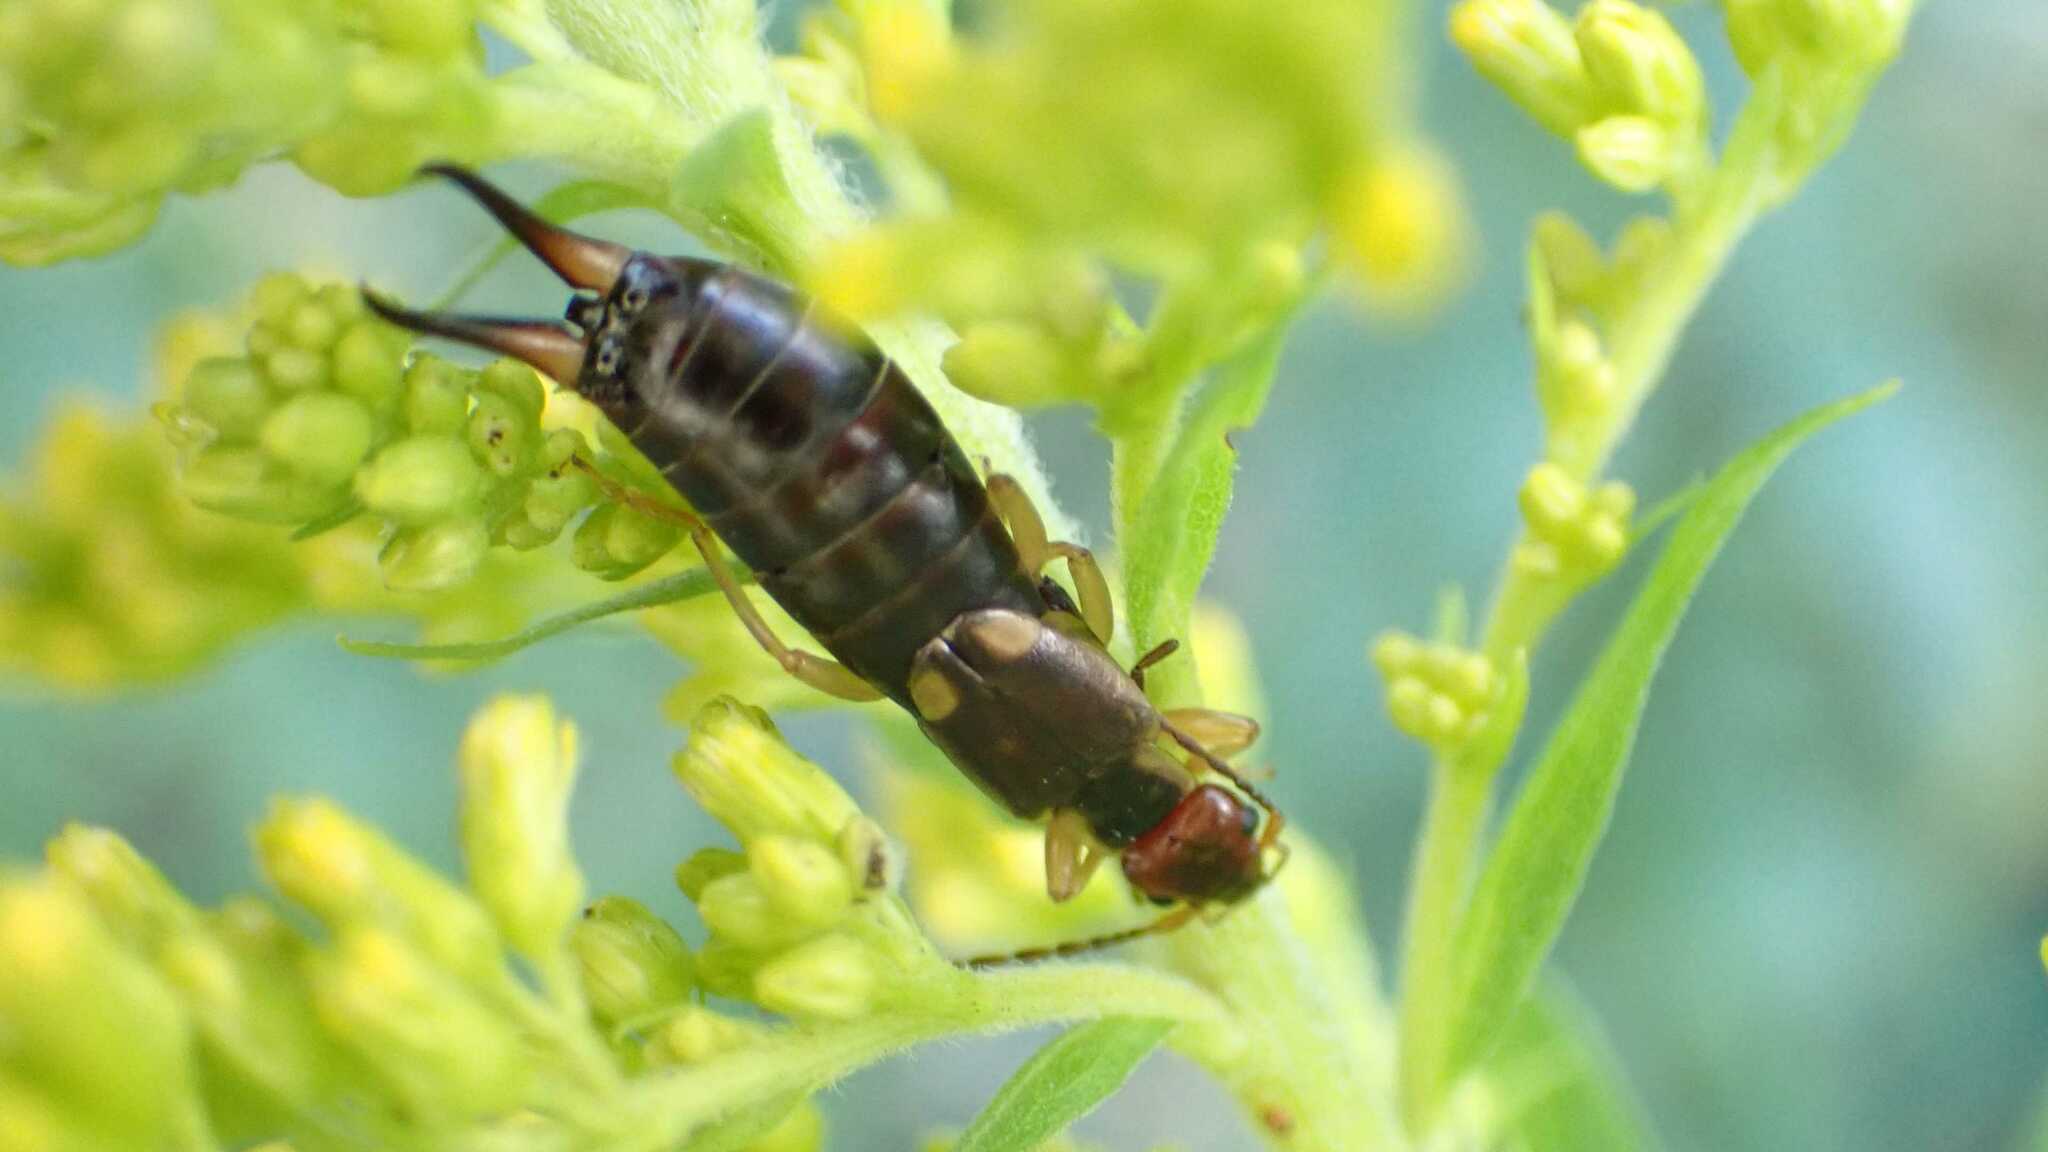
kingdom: Animalia
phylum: Arthropoda
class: Insecta
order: Dermaptera
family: Forficulidae
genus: Forficula
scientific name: Forficula
